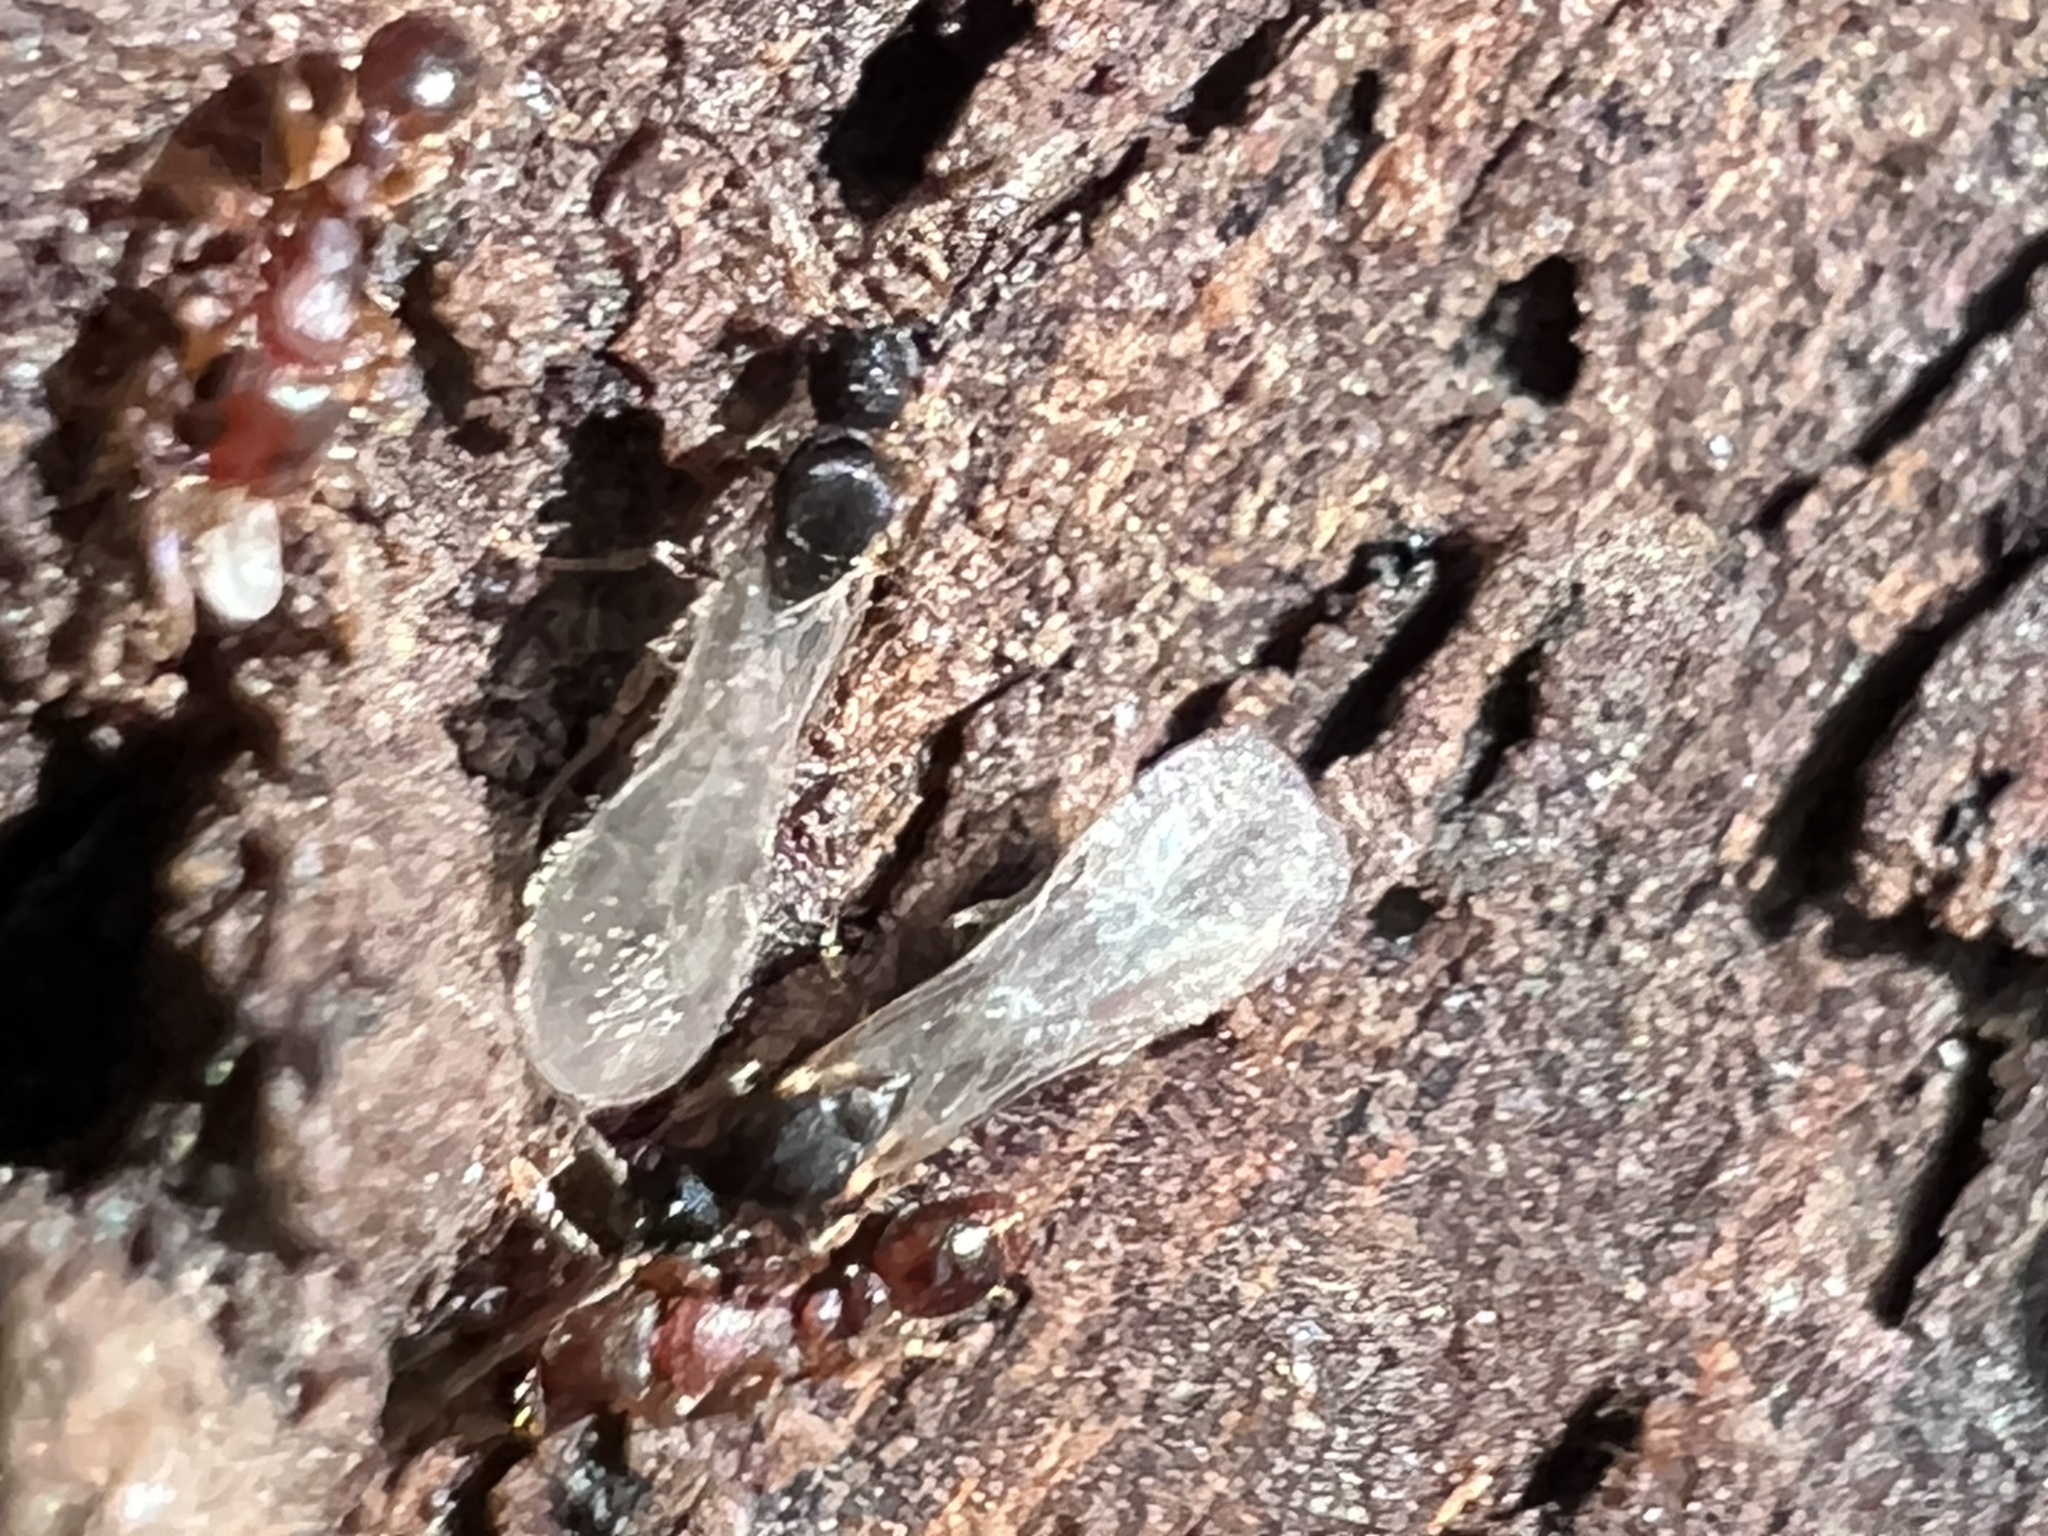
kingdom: Animalia
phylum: Arthropoda
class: Insecta
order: Hymenoptera
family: Formicidae
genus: Vollenhovia
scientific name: Vollenhovia emeryi
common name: Ant
